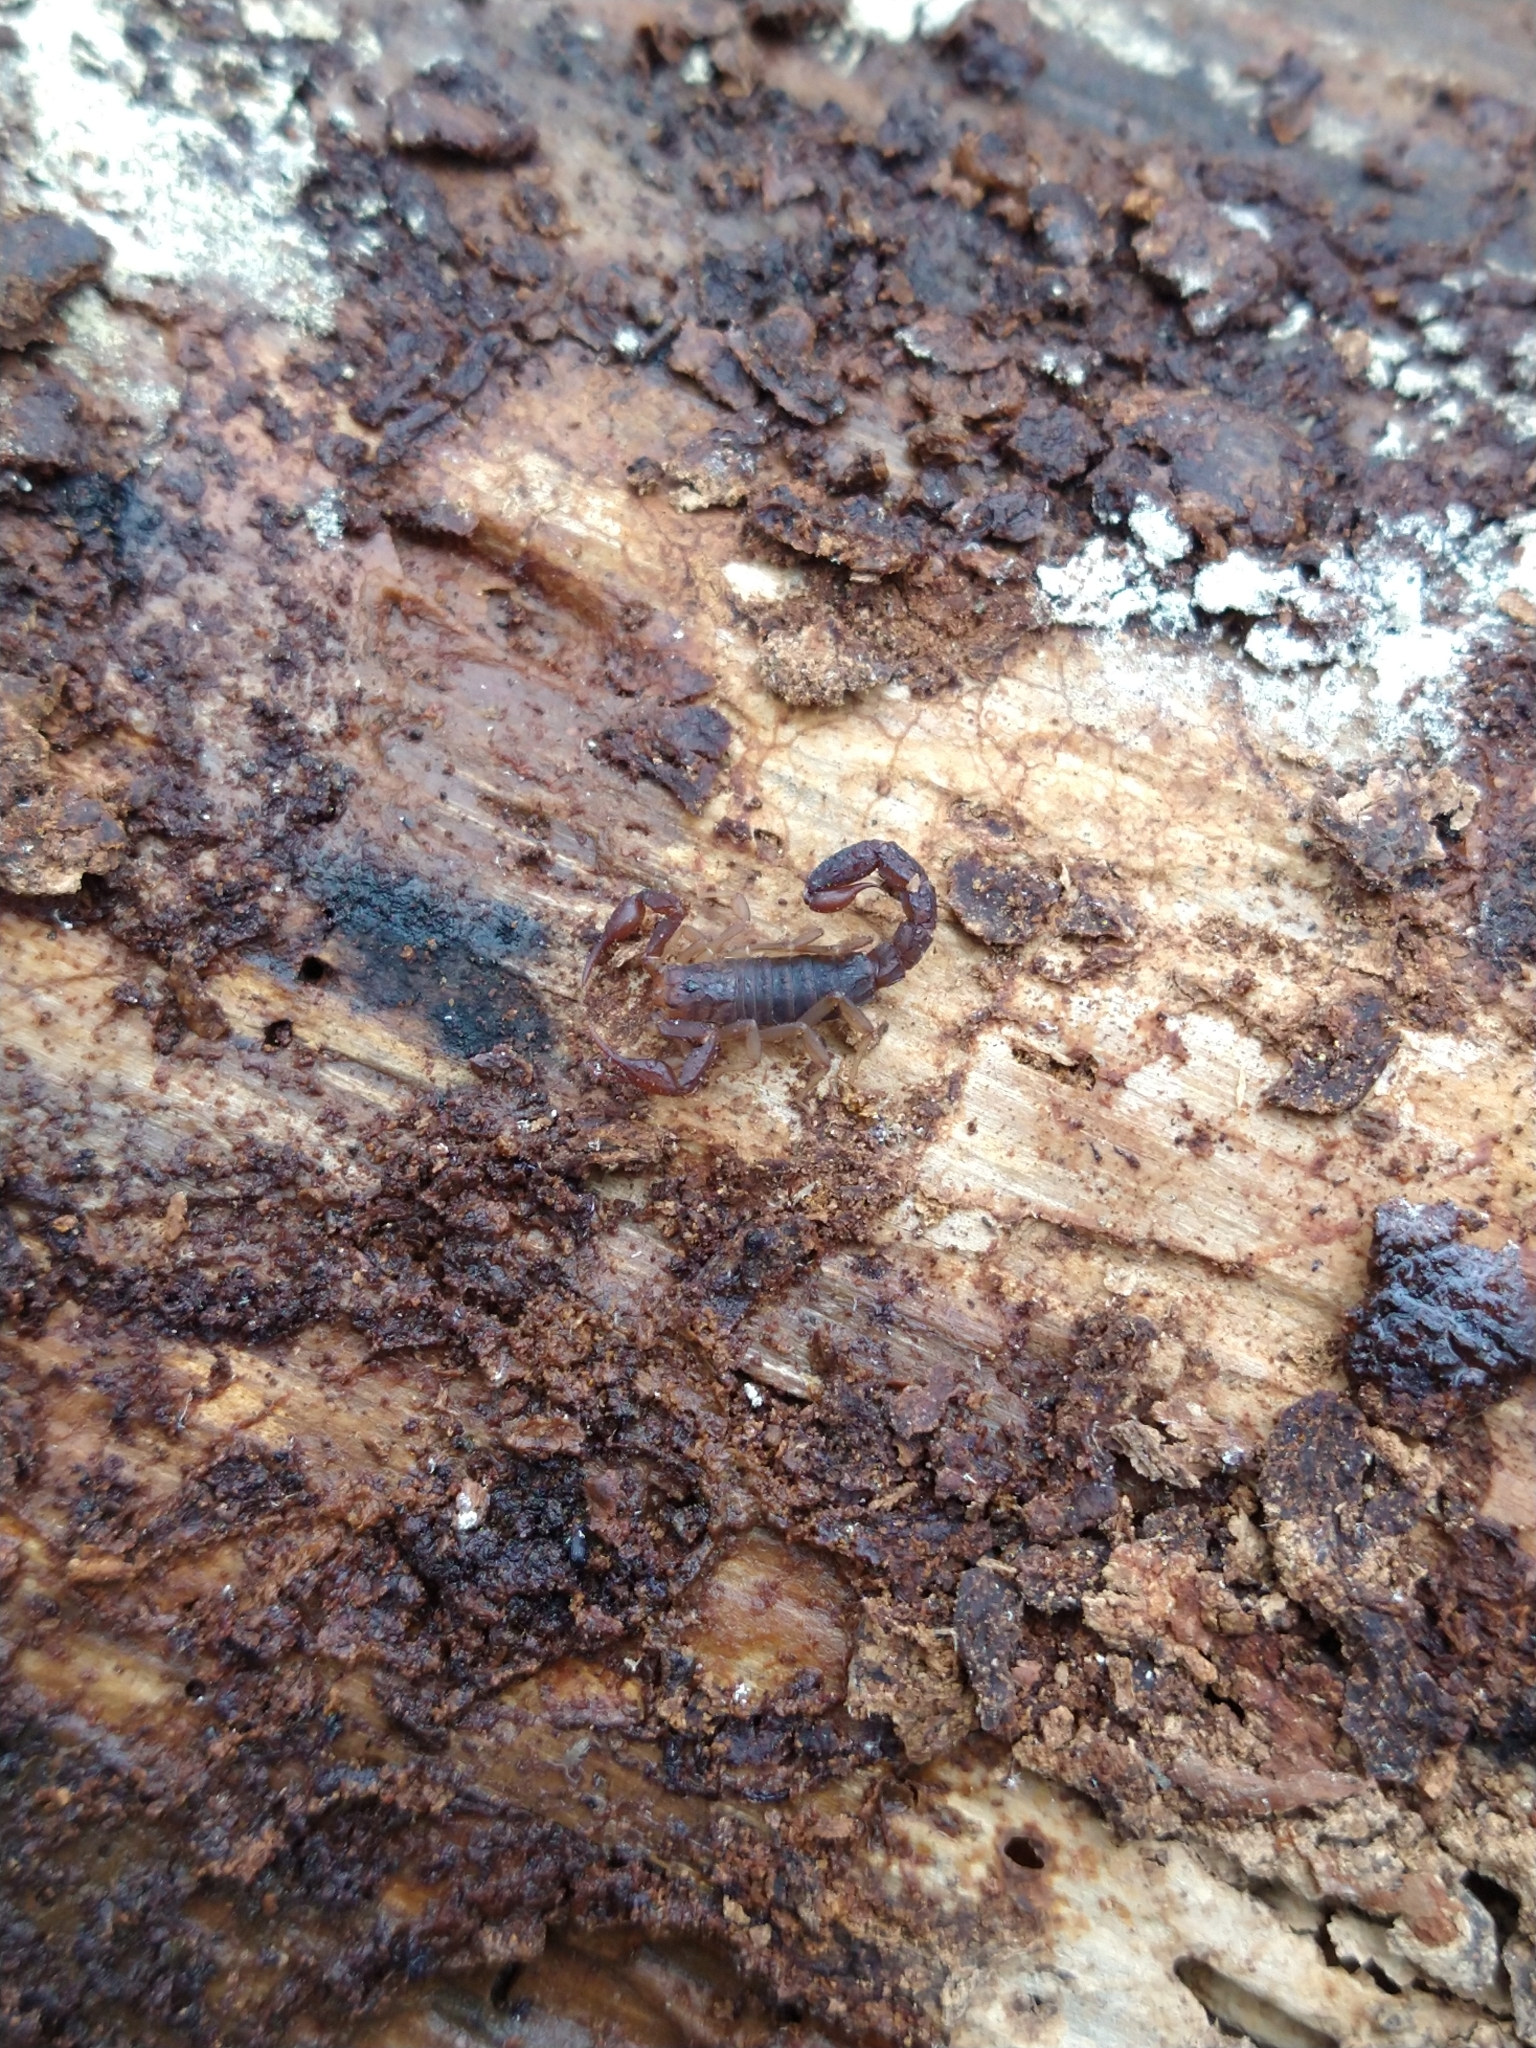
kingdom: Animalia
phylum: Arthropoda
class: Arachnida
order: Scorpiones
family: Vaejovidae
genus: Vaejovis
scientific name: Vaejovis carolinianus
